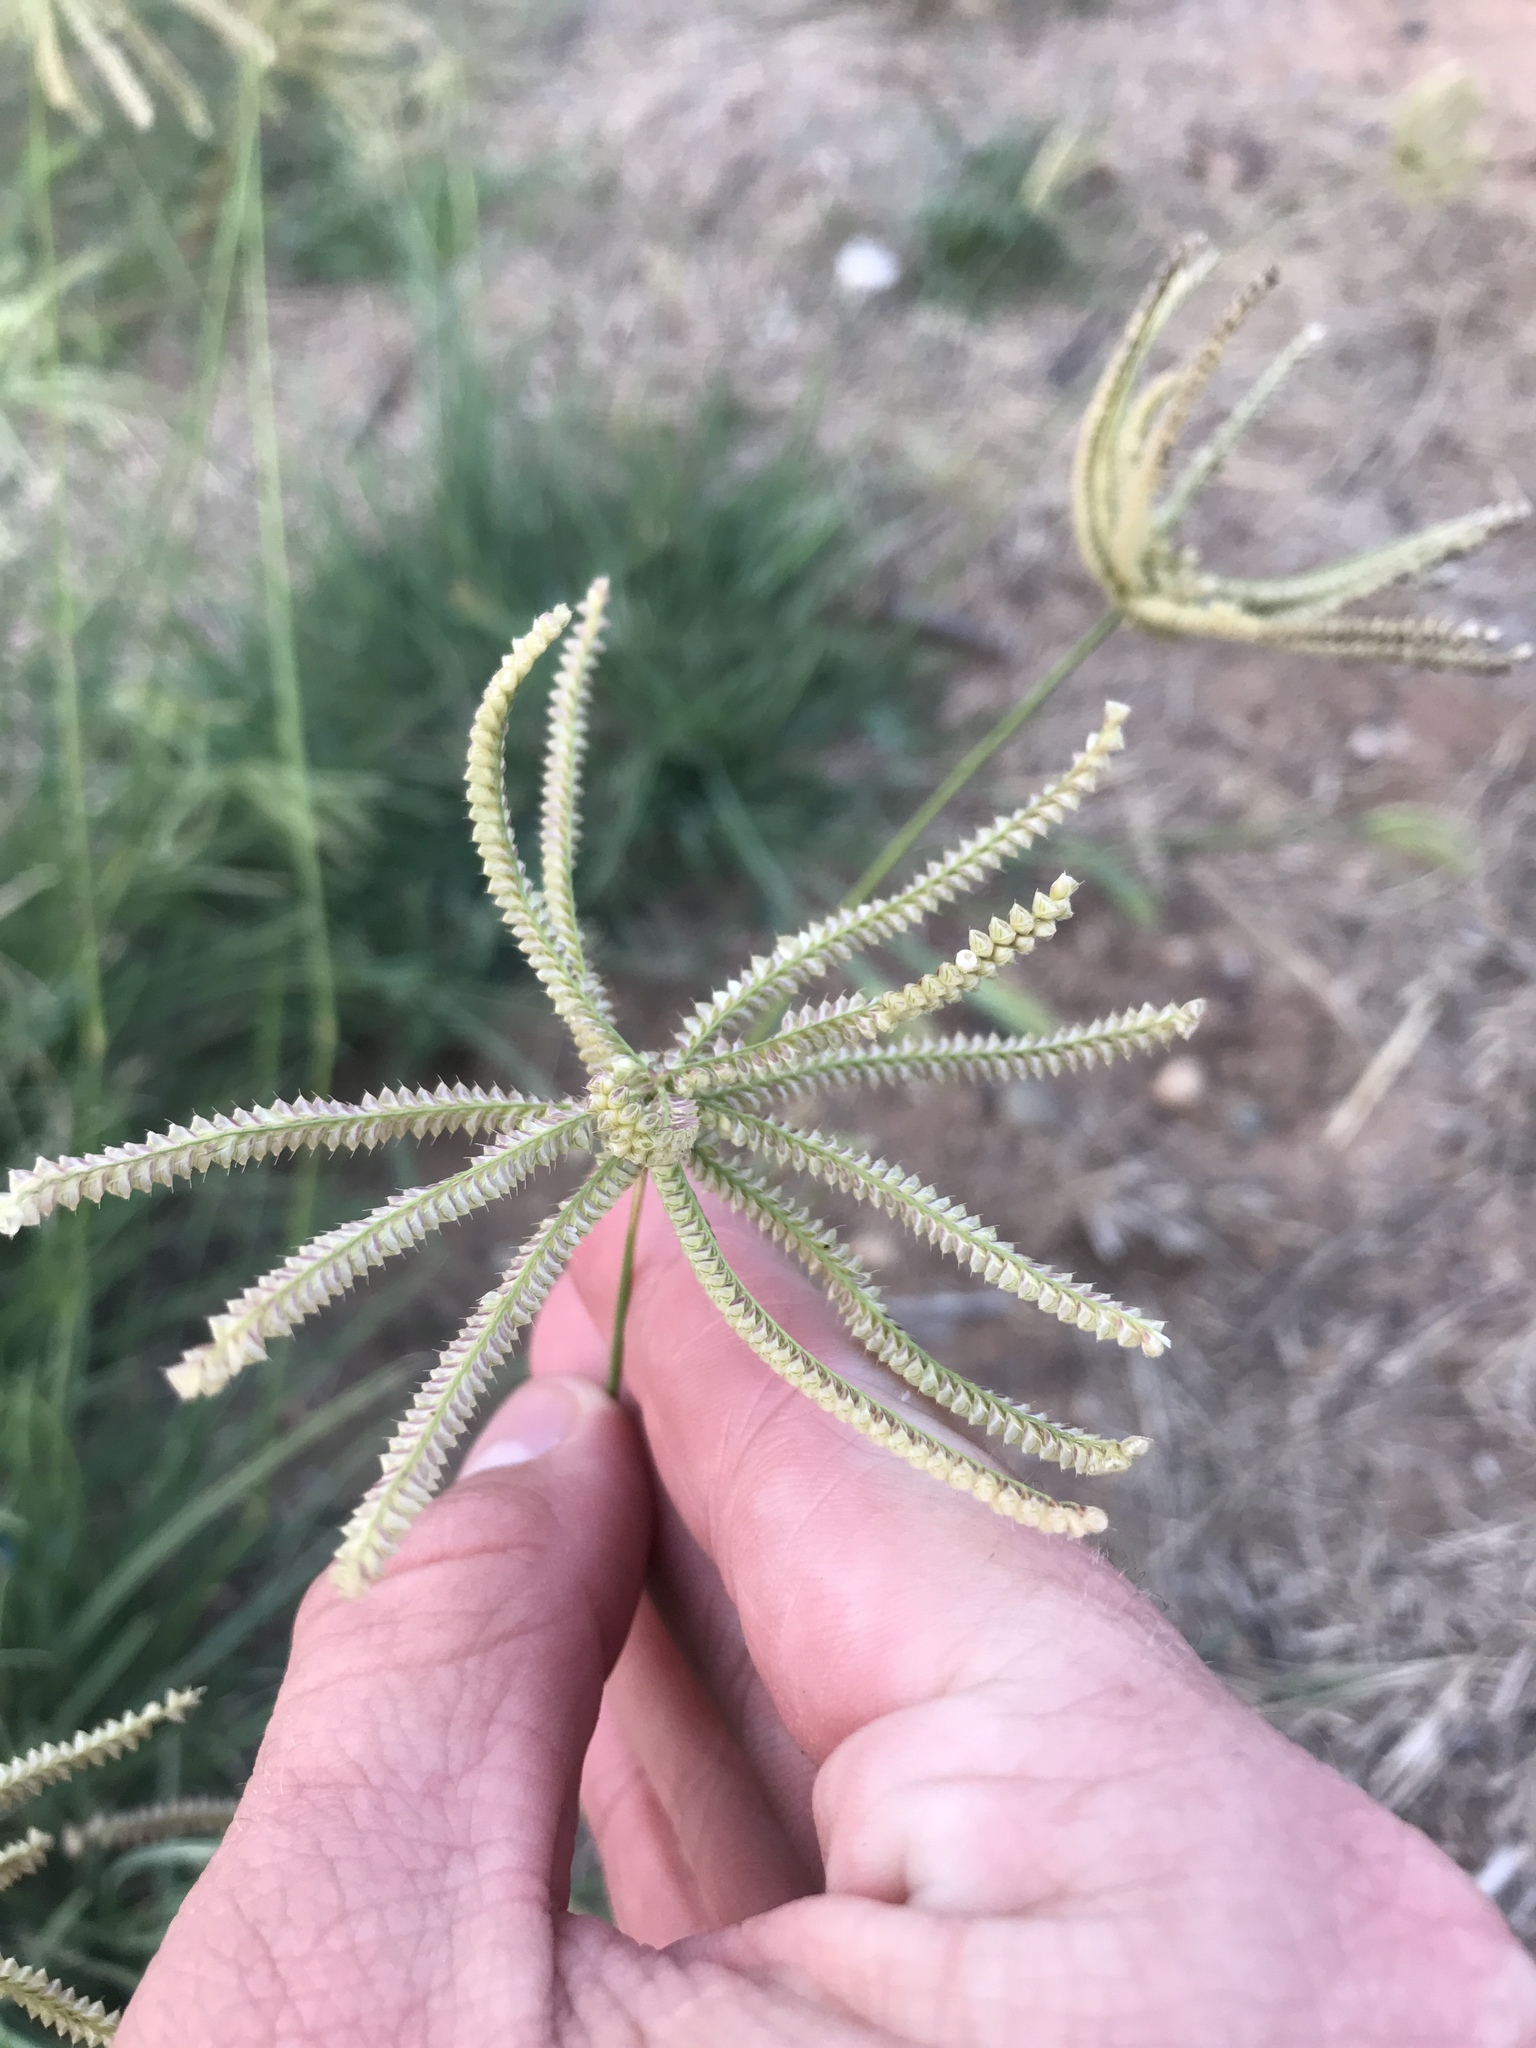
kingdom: Plantae
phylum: Tracheophyta
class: Liliopsida
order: Poales
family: Poaceae
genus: Chloris
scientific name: Chloris cucullata
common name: Hooded windmill grass
